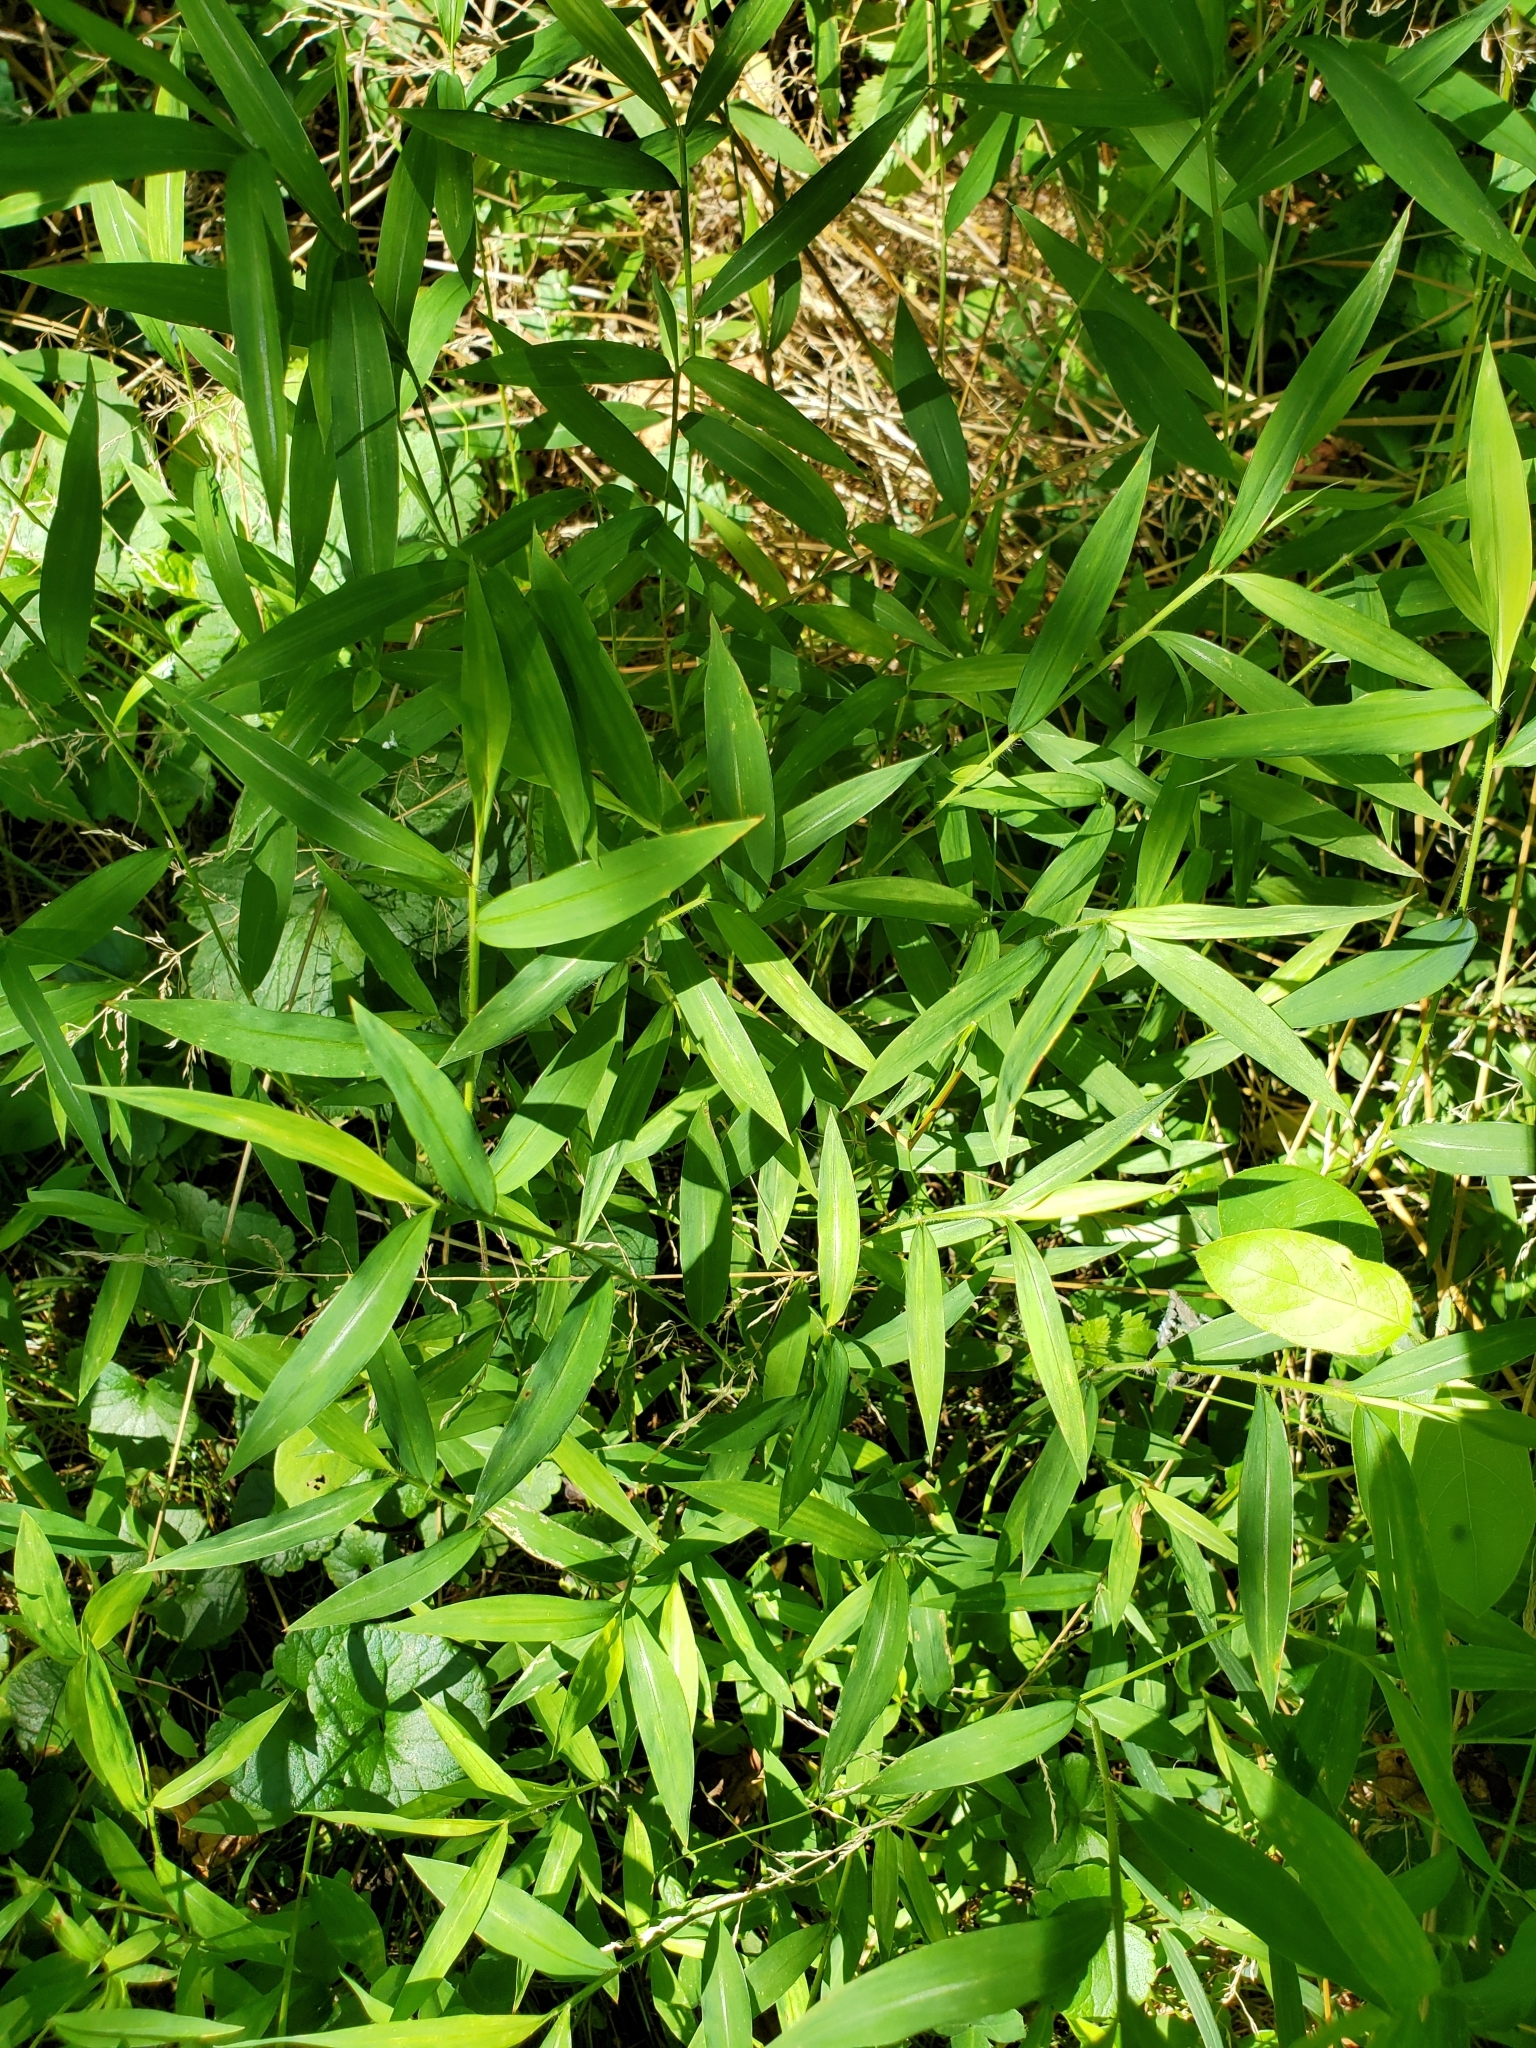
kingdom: Plantae
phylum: Tracheophyta
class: Liliopsida
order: Poales
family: Poaceae
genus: Microstegium
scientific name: Microstegium vimineum
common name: Japanese stiltgrass
